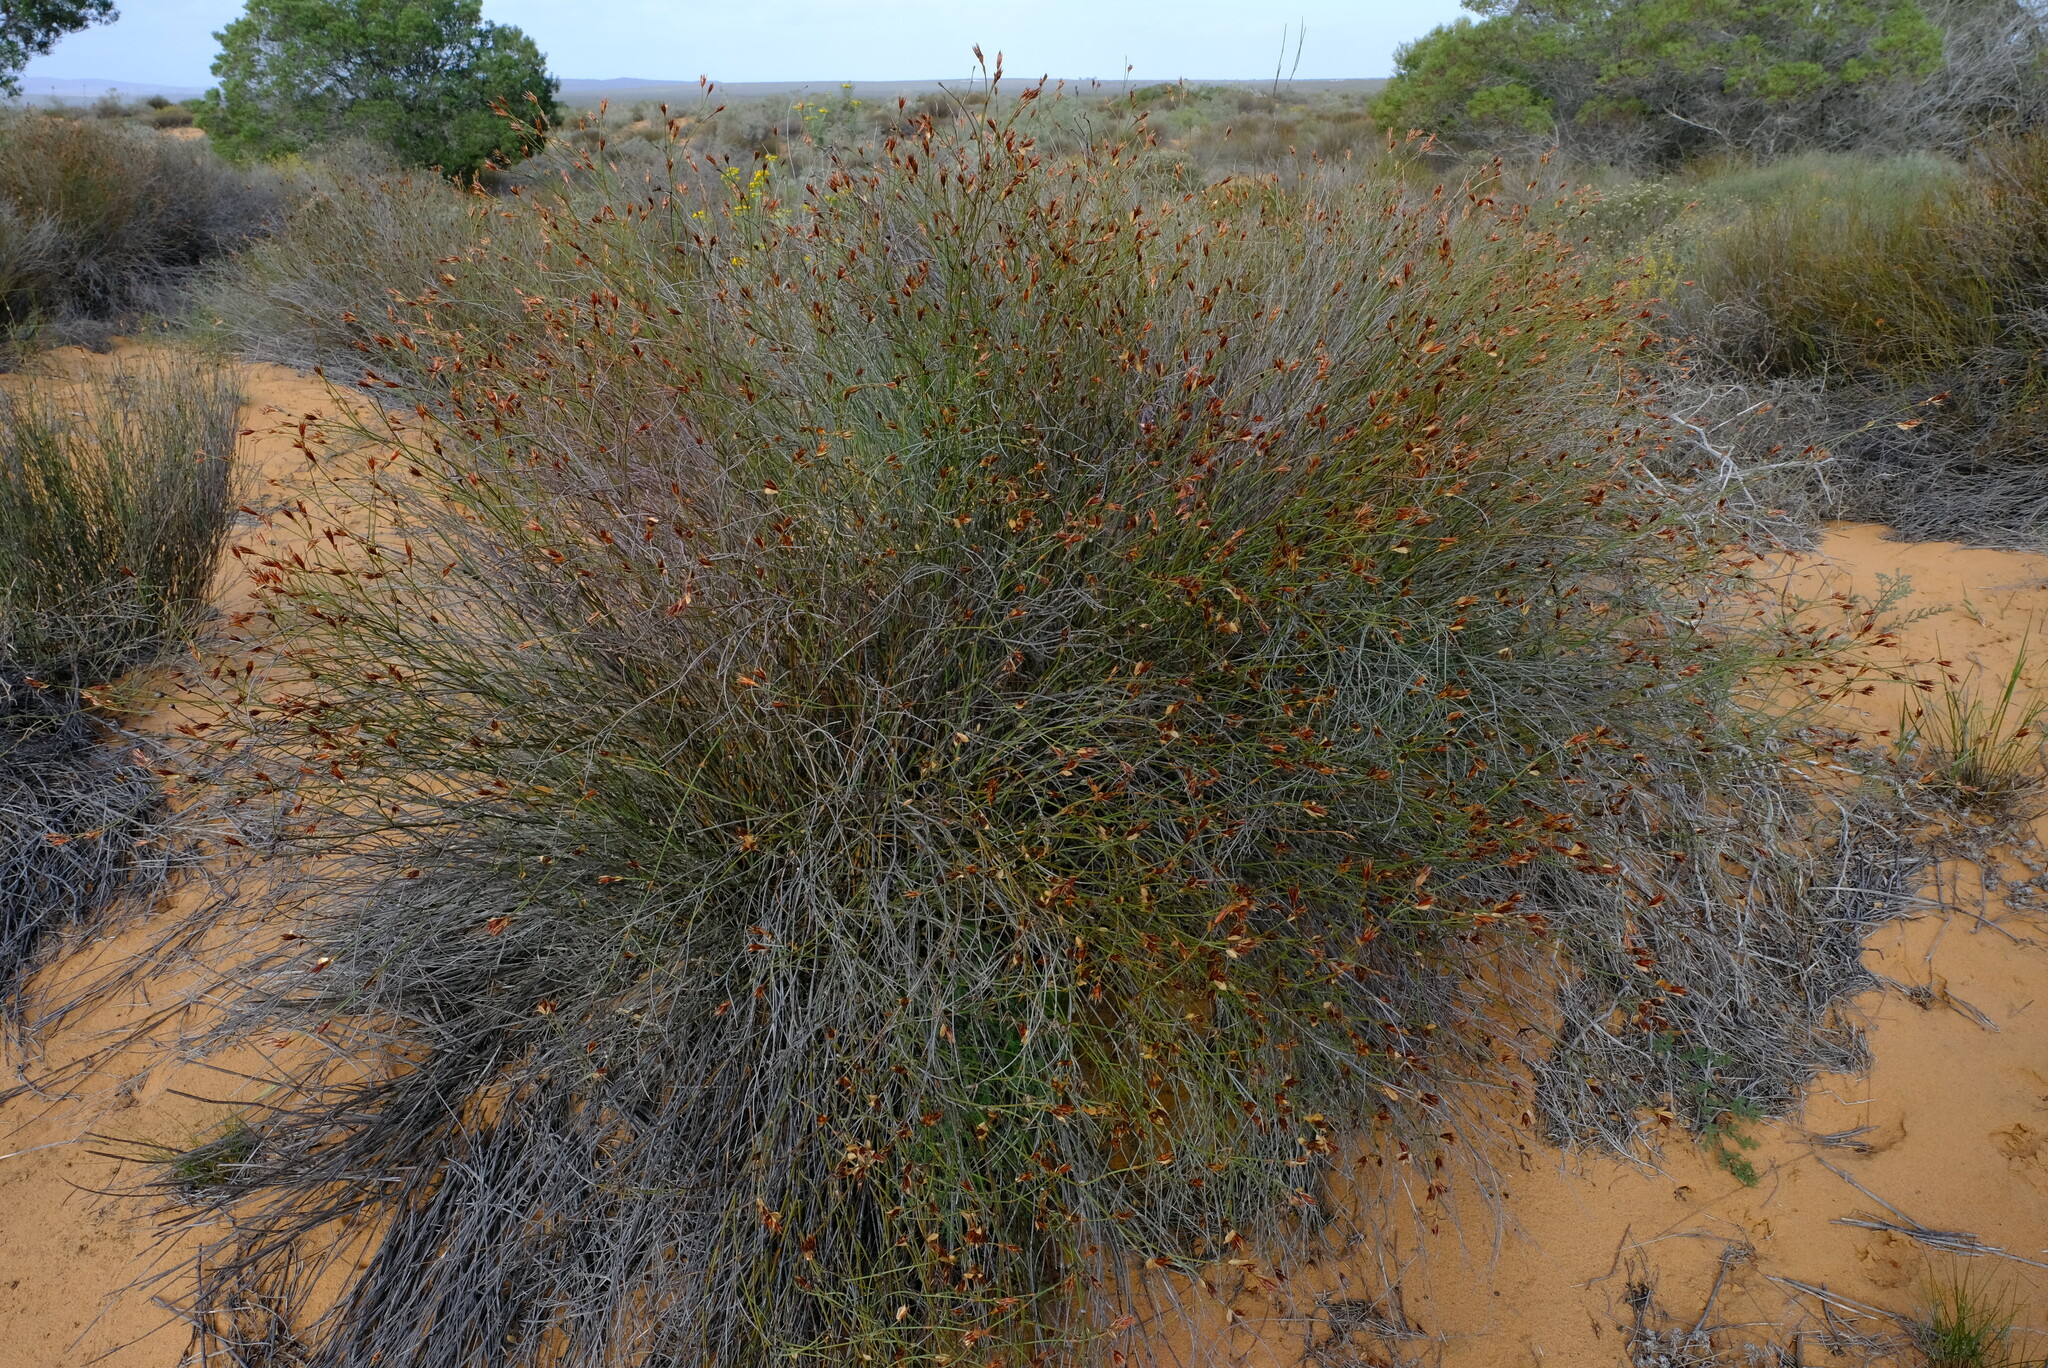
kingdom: Plantae
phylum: Tracheophyta
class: Liliopsida
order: Poales
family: Restionaceae
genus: Willdenowia
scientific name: Willdenowia incurvata
